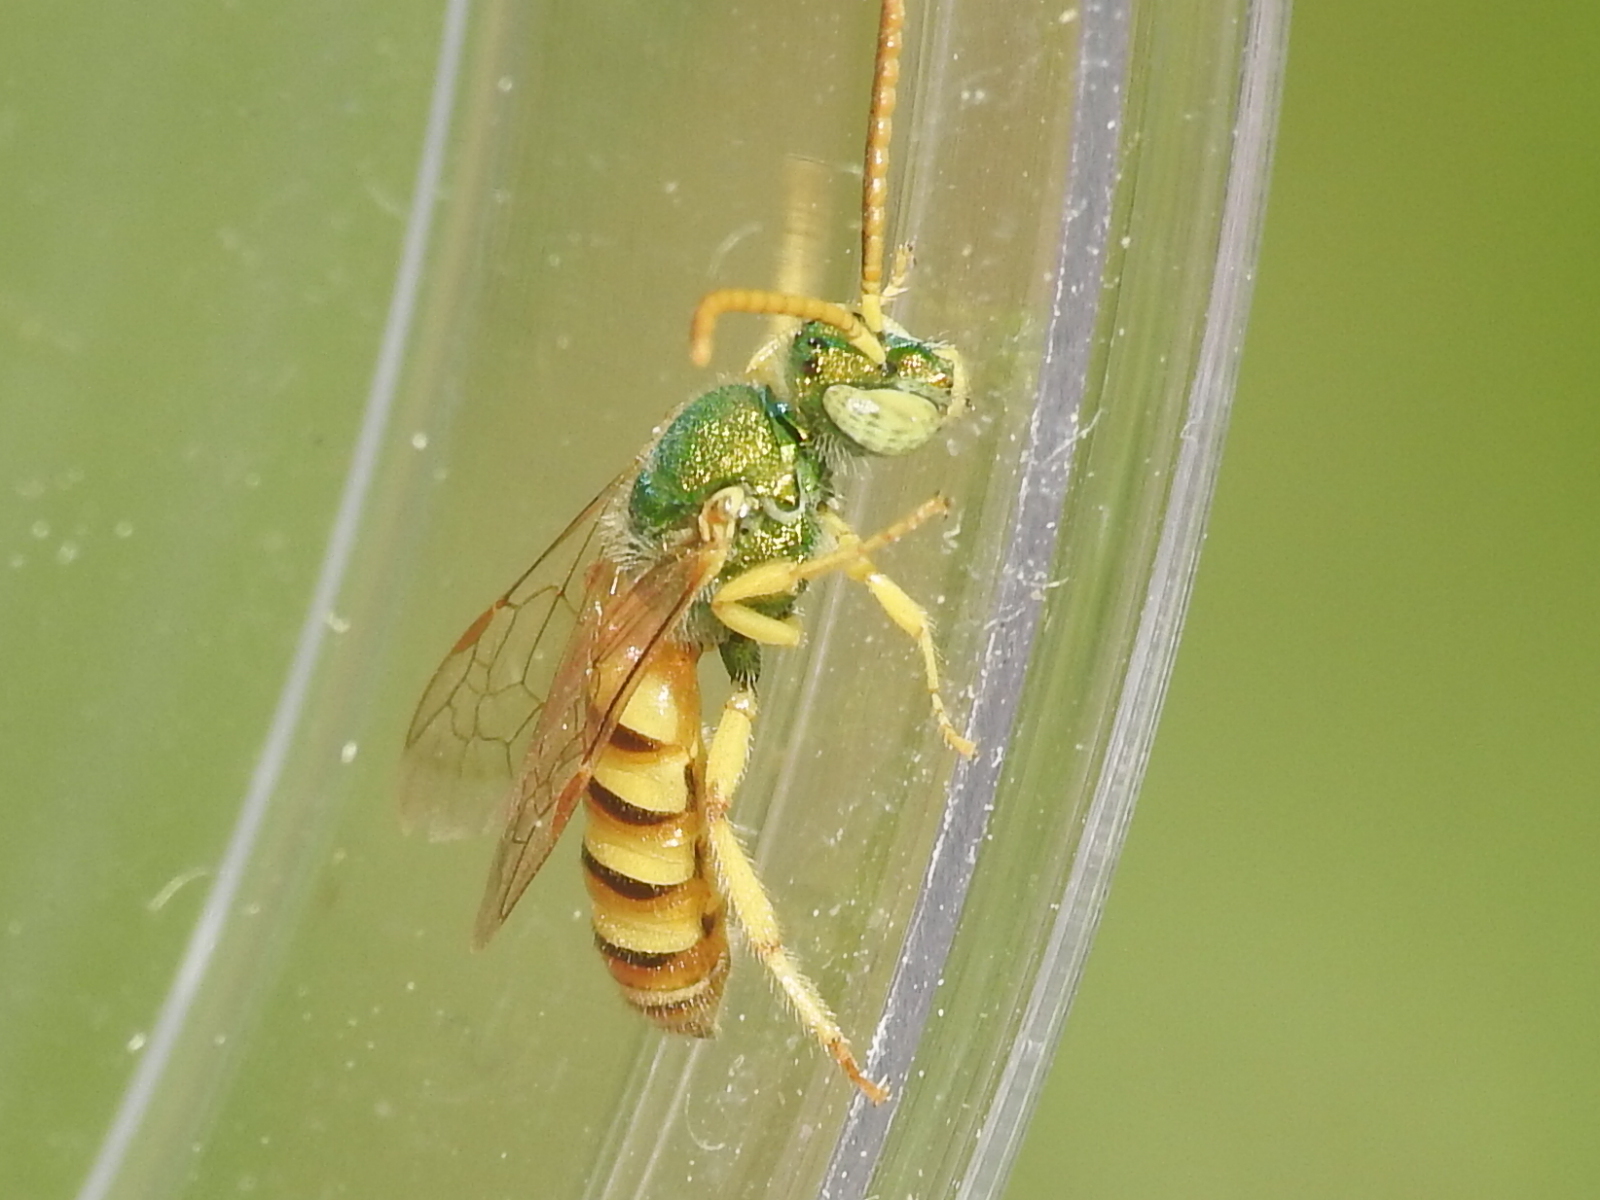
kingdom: Animalia
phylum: Arthropoda
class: Insecta
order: Hymenoptera
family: Halictidae
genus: Agapostemon
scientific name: Agapostemon melliventris
